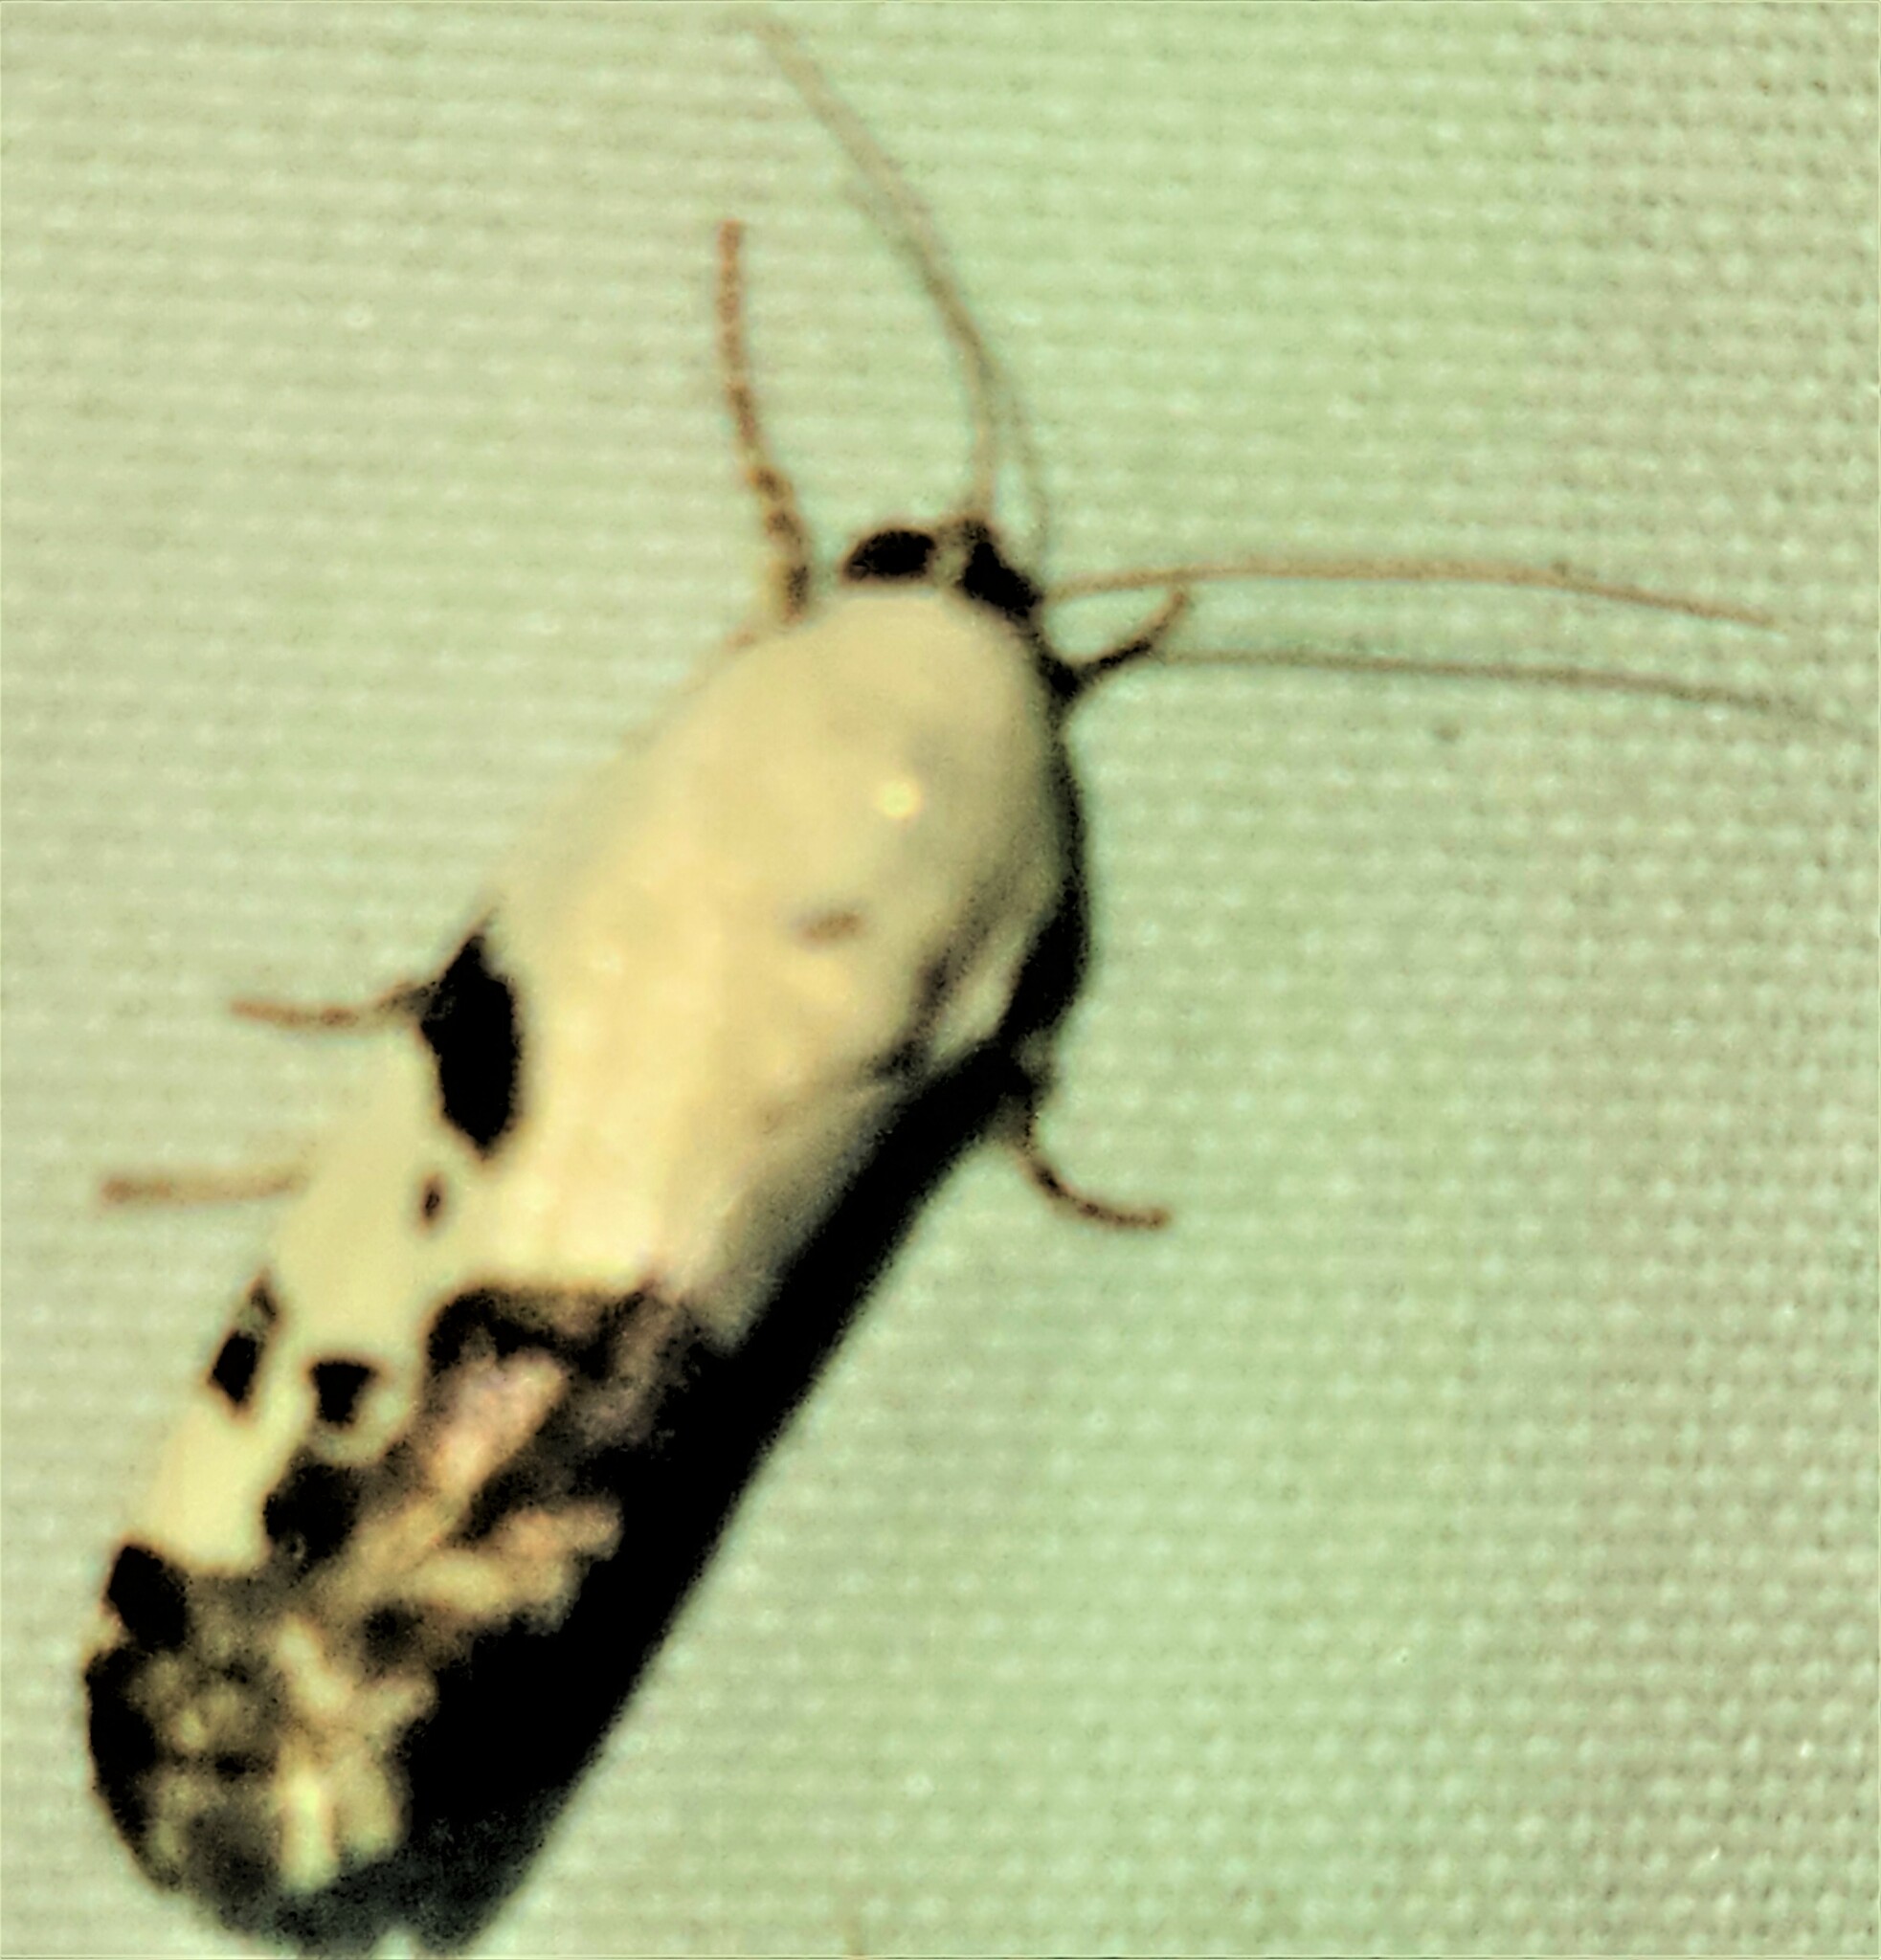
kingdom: Animalia
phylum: Arthropoda
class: Insecta
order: Lepidoptera
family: Noctuidae
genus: Acontia
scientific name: Acontia aprica
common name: Nun
